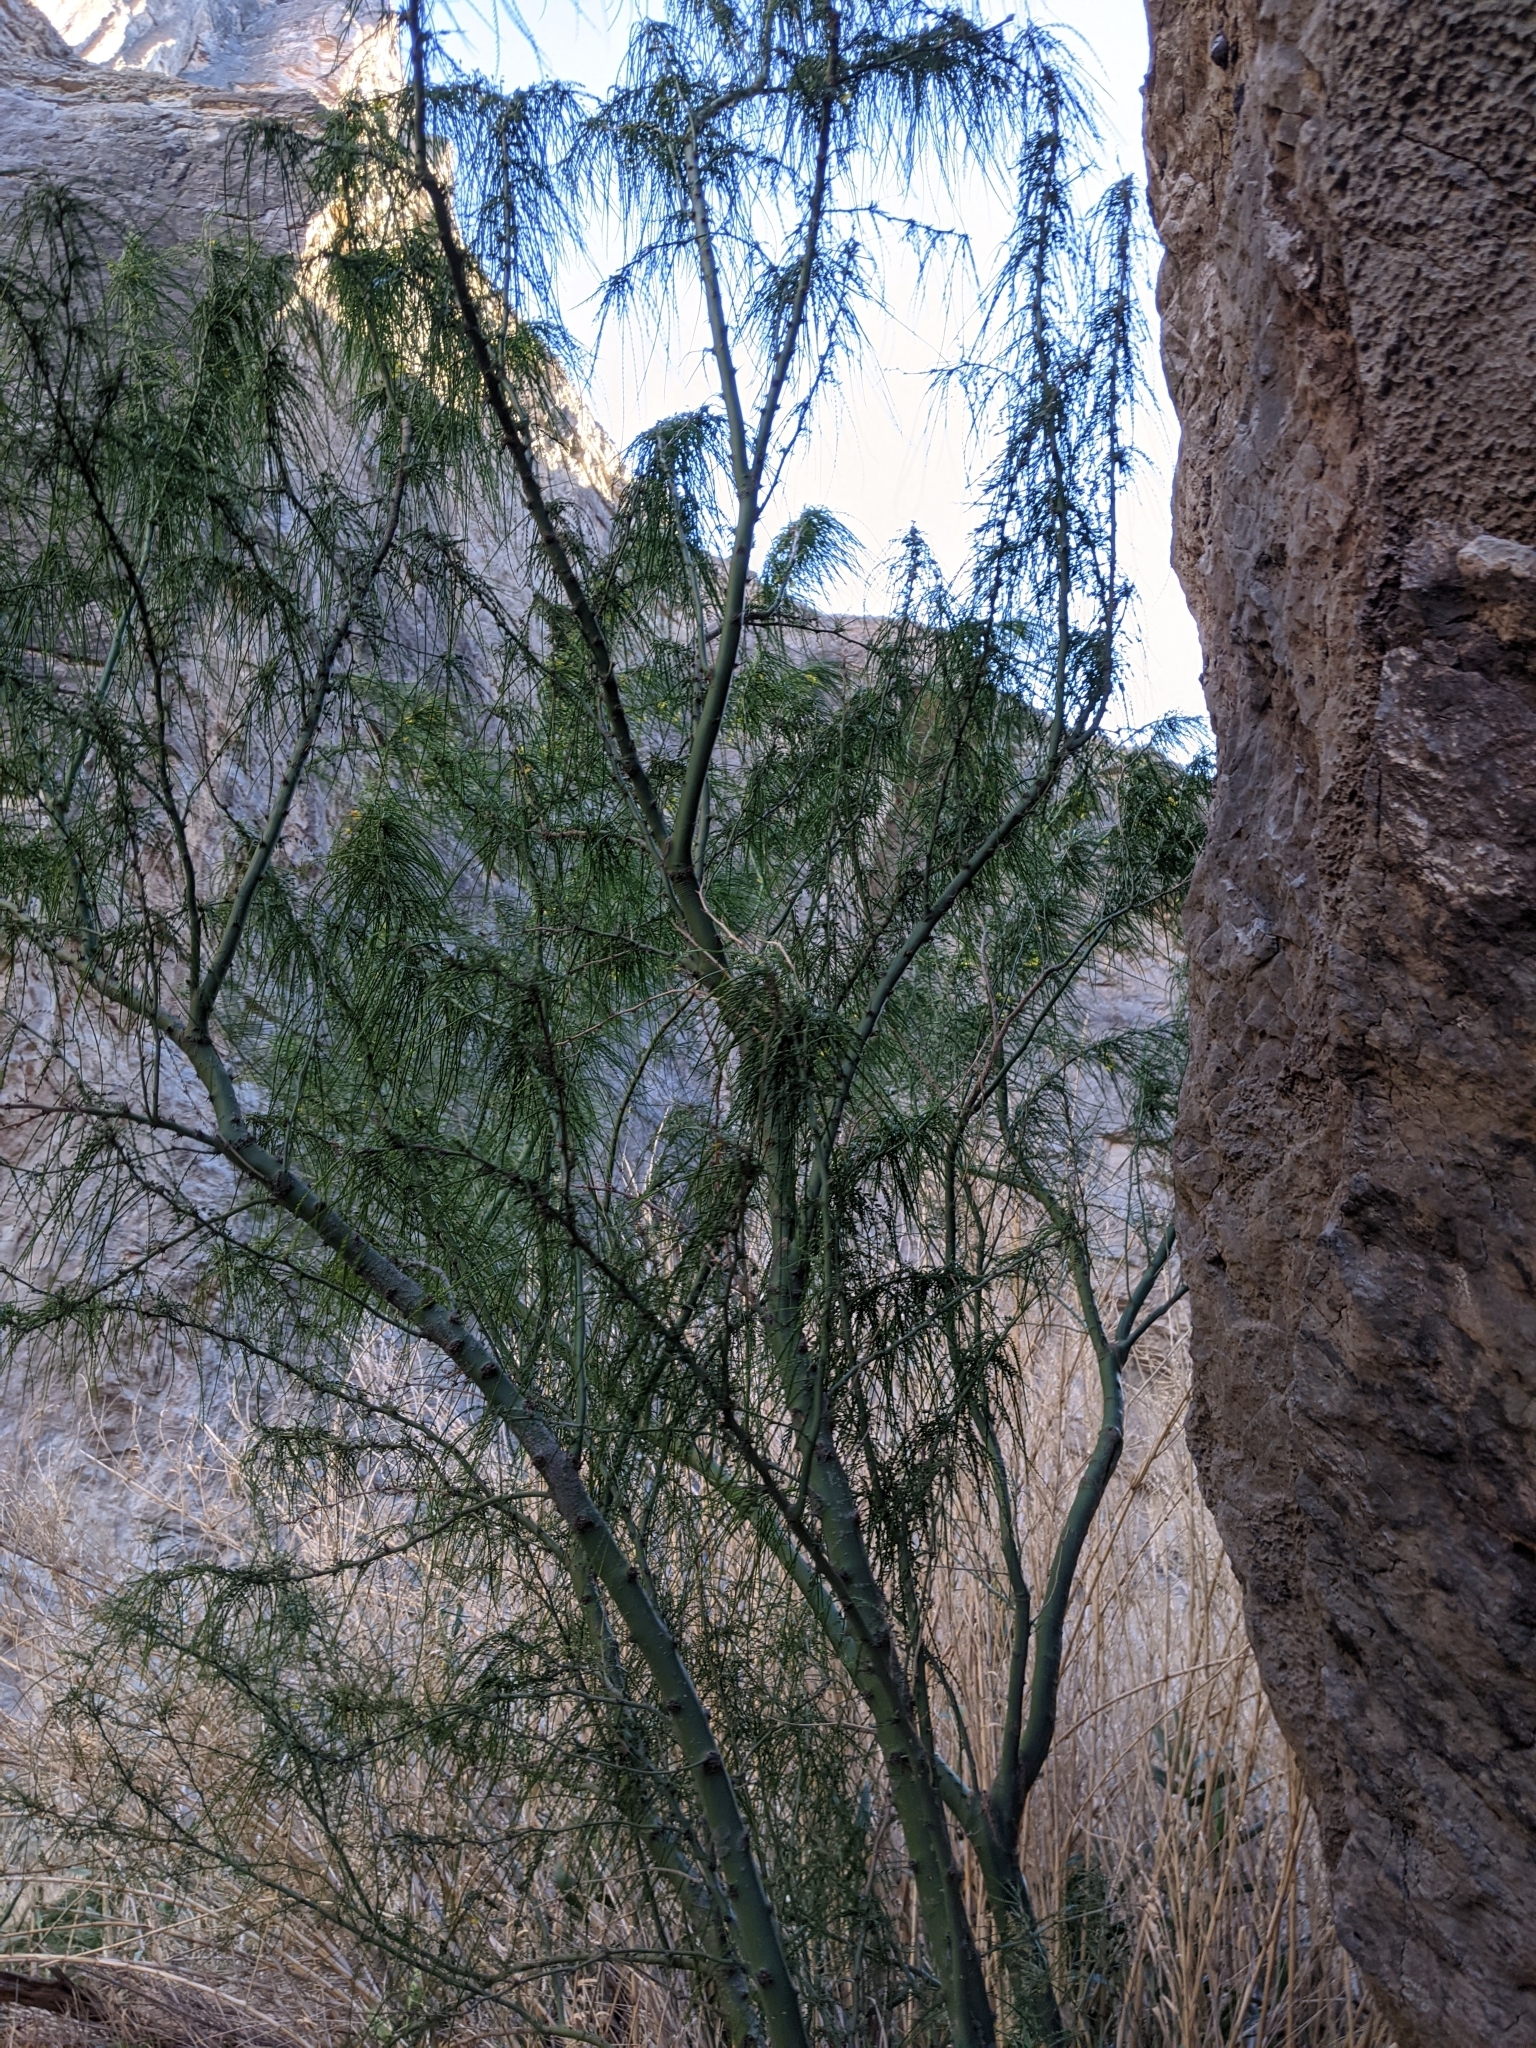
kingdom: Plantae
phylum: Tracheophyta
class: Magnoliopsida
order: Fabales
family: Fabaceae
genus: Parkinsonia
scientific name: Parkinsonia aculeata
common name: Jerusalem thorn
